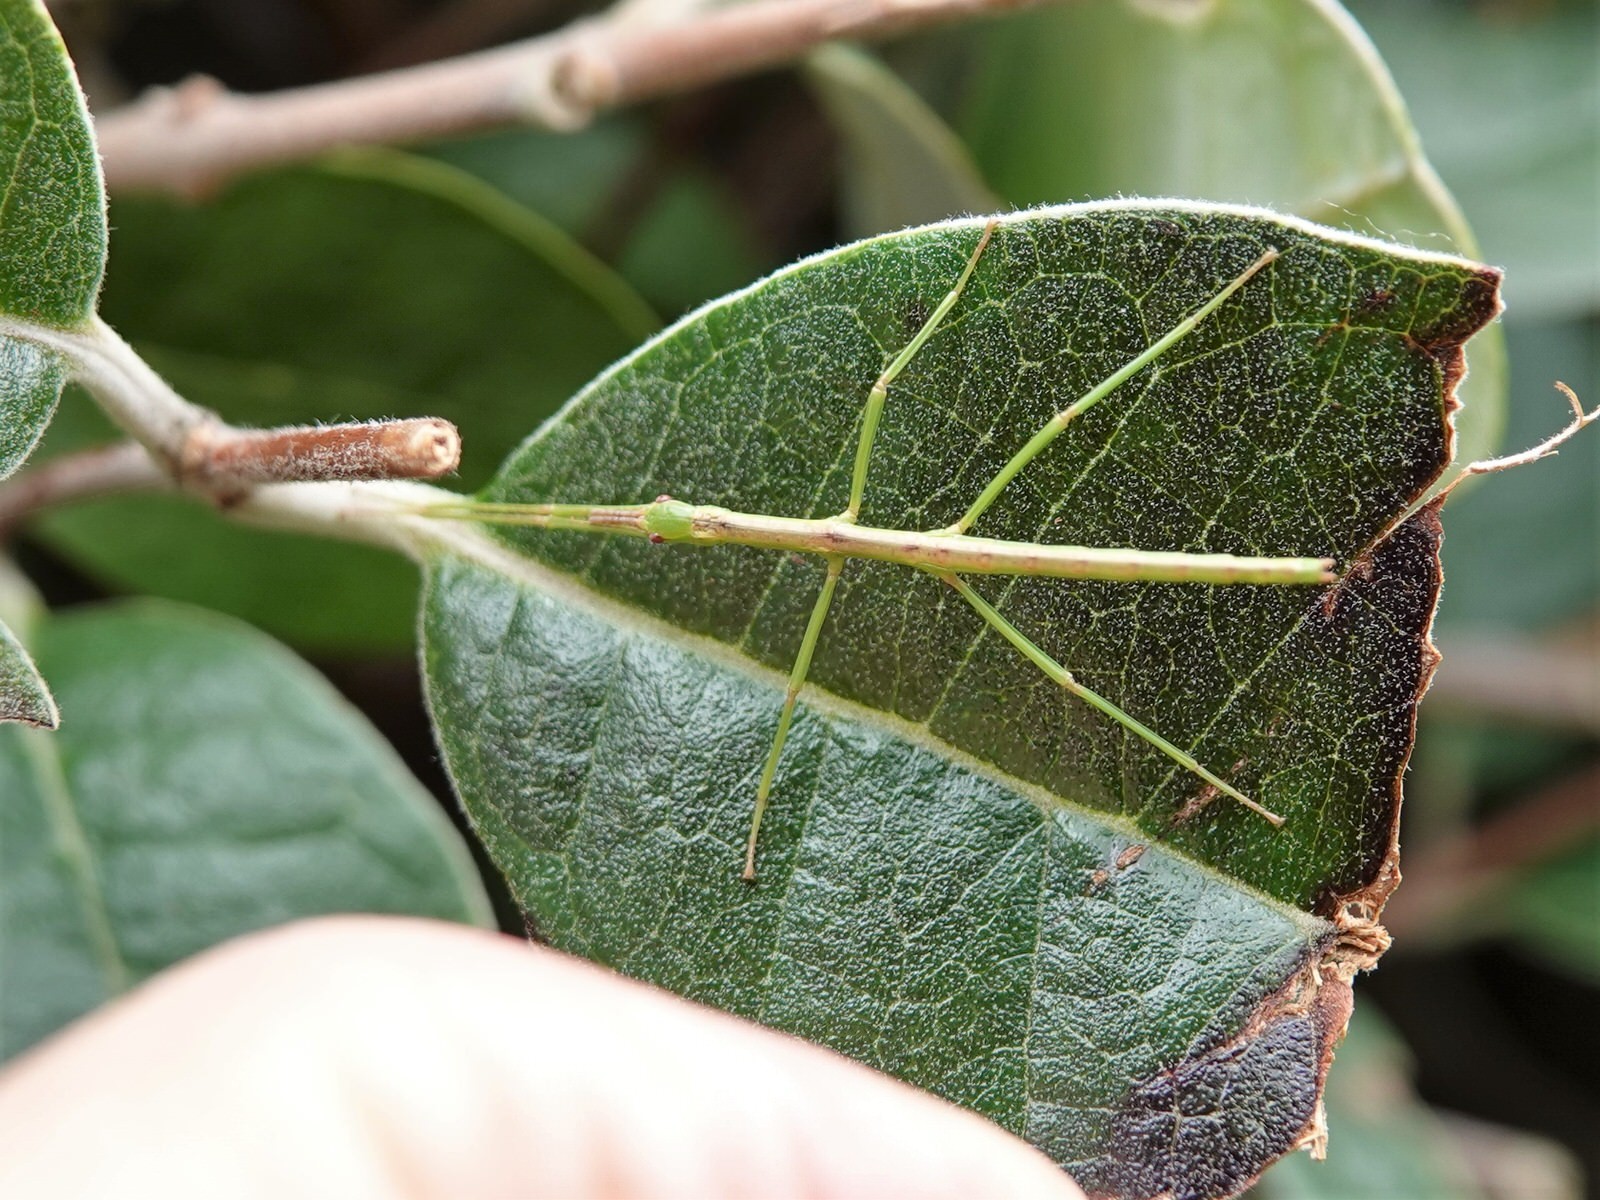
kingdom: Animalia
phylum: Arthropoda
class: Insecta
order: Phasmida
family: Phasmatidae
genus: Clitarchus
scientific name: Clitarchus hookeri
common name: Smooth stick insect
